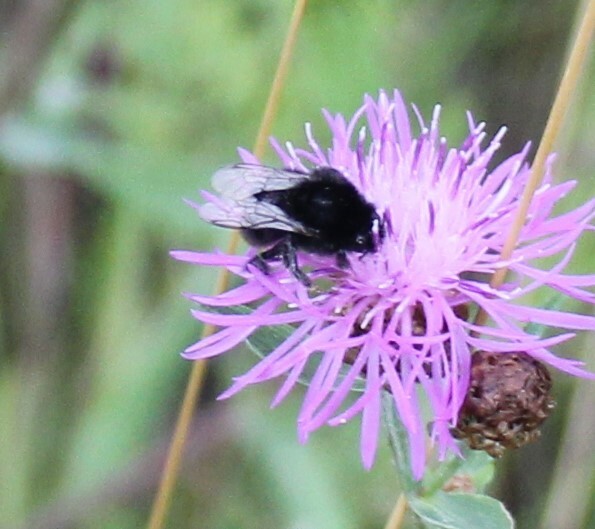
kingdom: Animalia
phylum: Arthropoda
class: Insecta
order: Hymenoptera
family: Apidae
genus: Bombus
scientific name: Bombus ruderarius
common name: Red-shanked carder-bee
